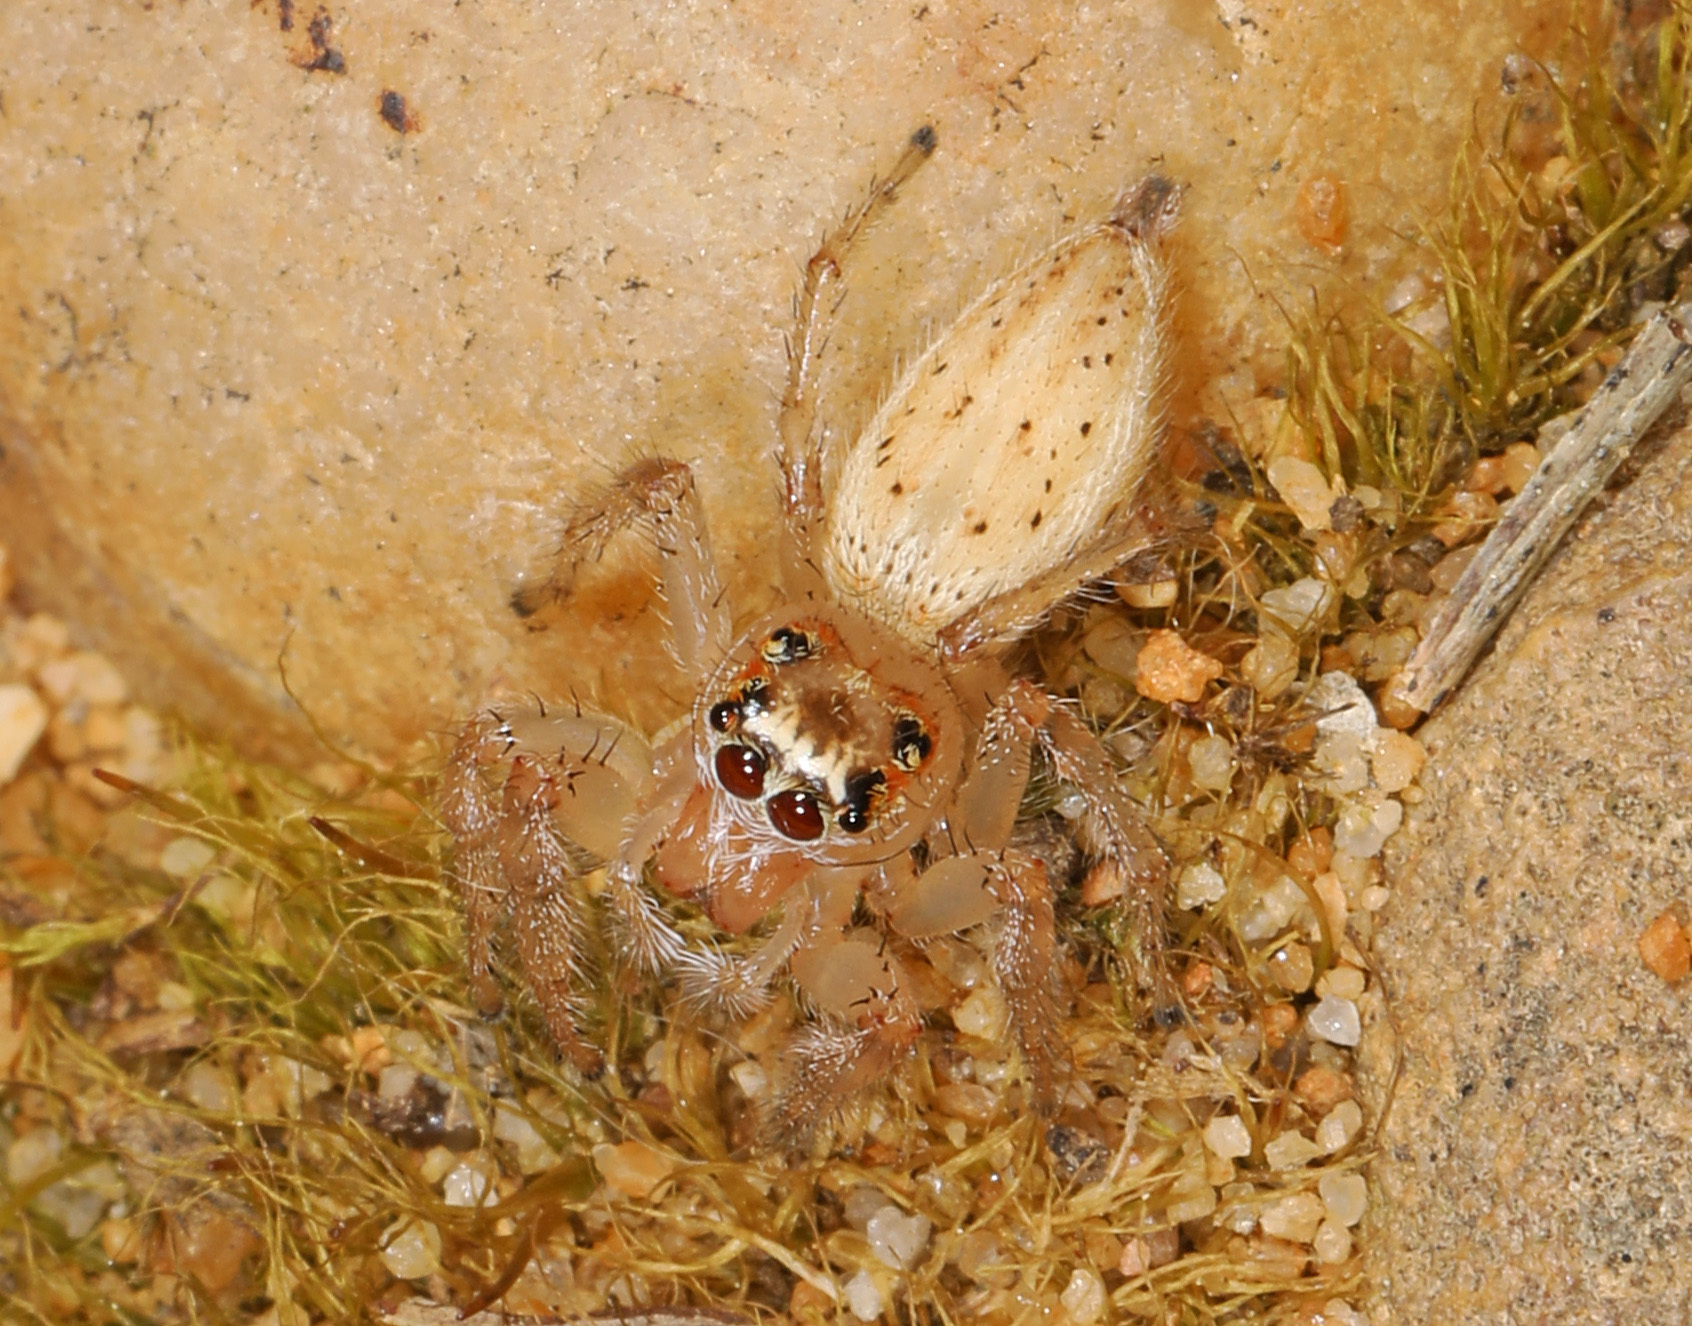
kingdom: Animalia
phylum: Arthropoda
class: Arachnida
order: Araneae
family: Salticidae
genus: Colonus
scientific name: Colonus sylvanus
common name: Jumping spiders
